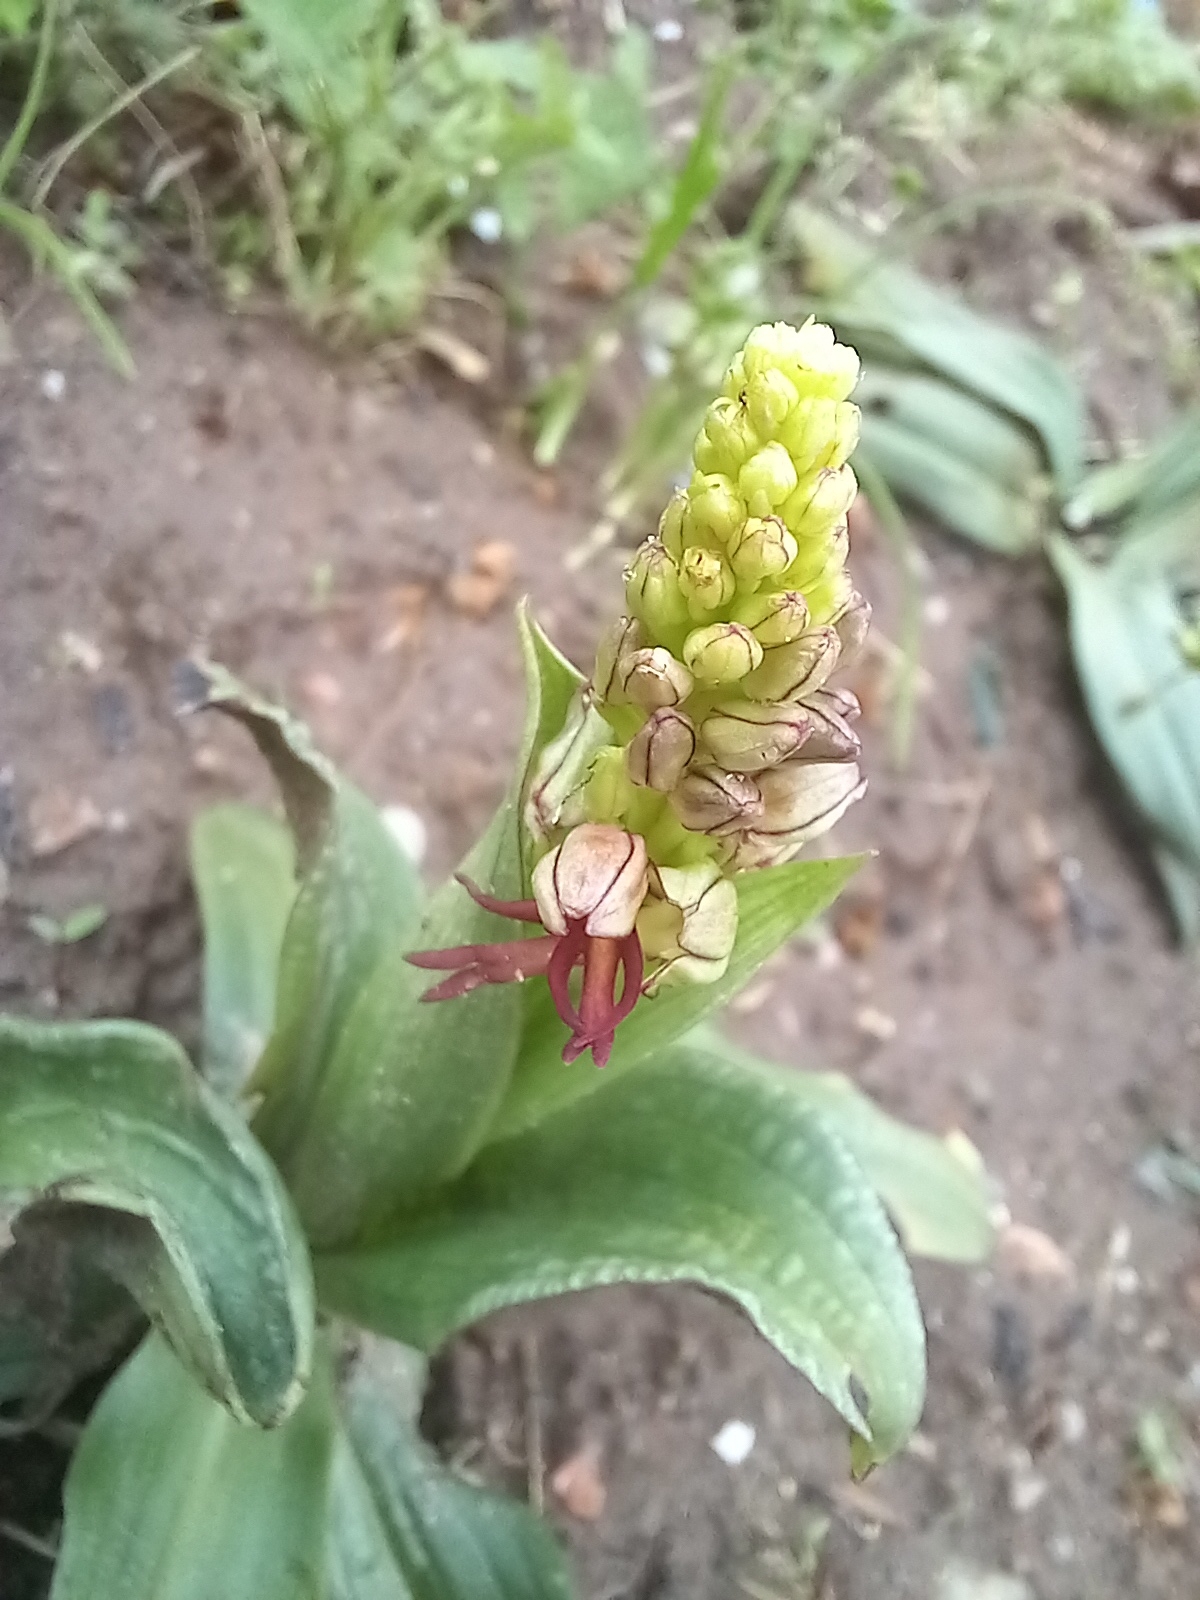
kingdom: Plantae
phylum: Tracheophyta
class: Liliopsida
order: Asparagales
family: Orchidaceae
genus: Orchis
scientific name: Orchis anthropophora
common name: Man orchid
